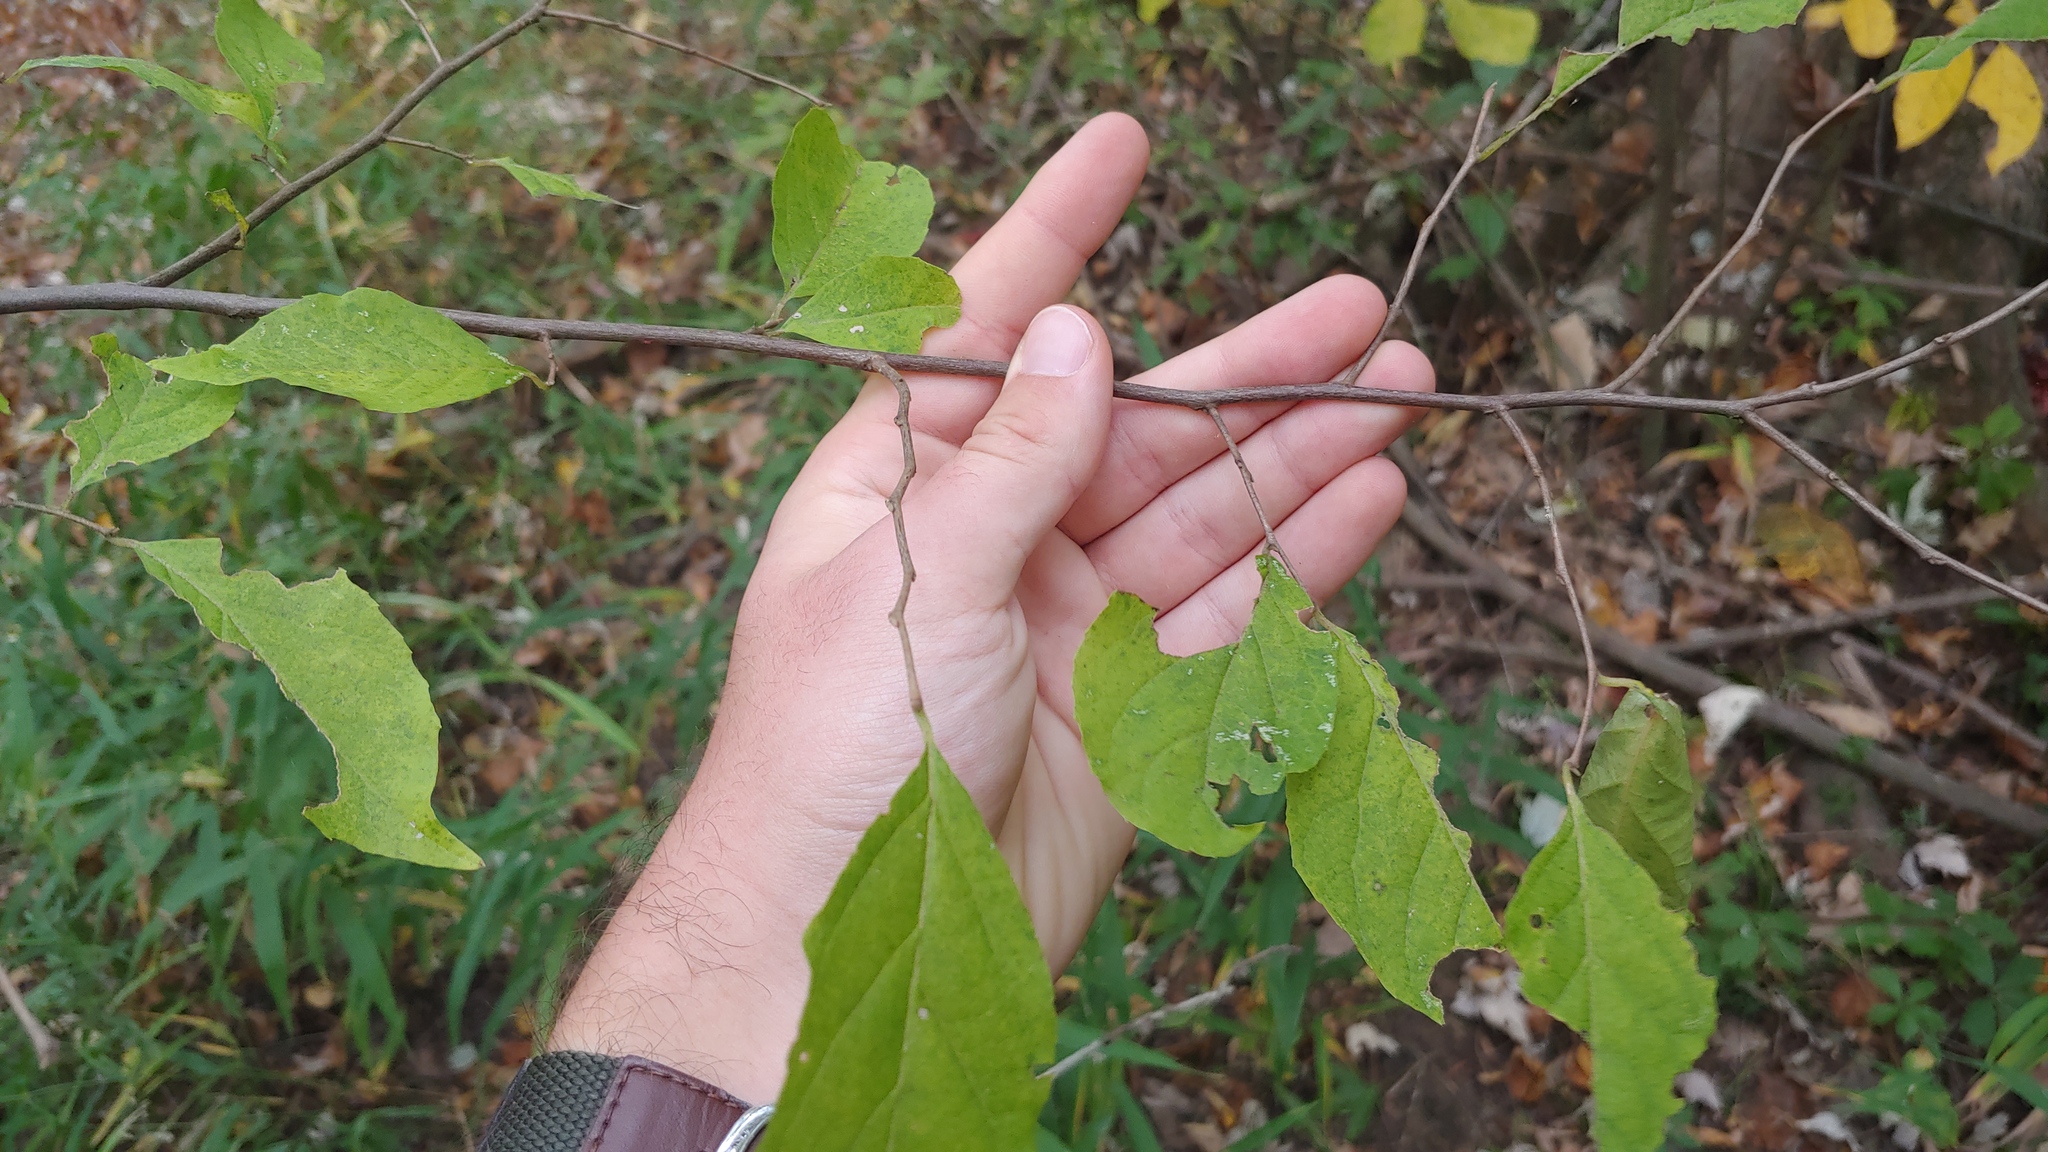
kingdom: Plantae
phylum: Tracheophyta
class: Magnoliopsida
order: Ericales
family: Styracaceae
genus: Styrax
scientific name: Styrax americanus
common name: American snowbell
